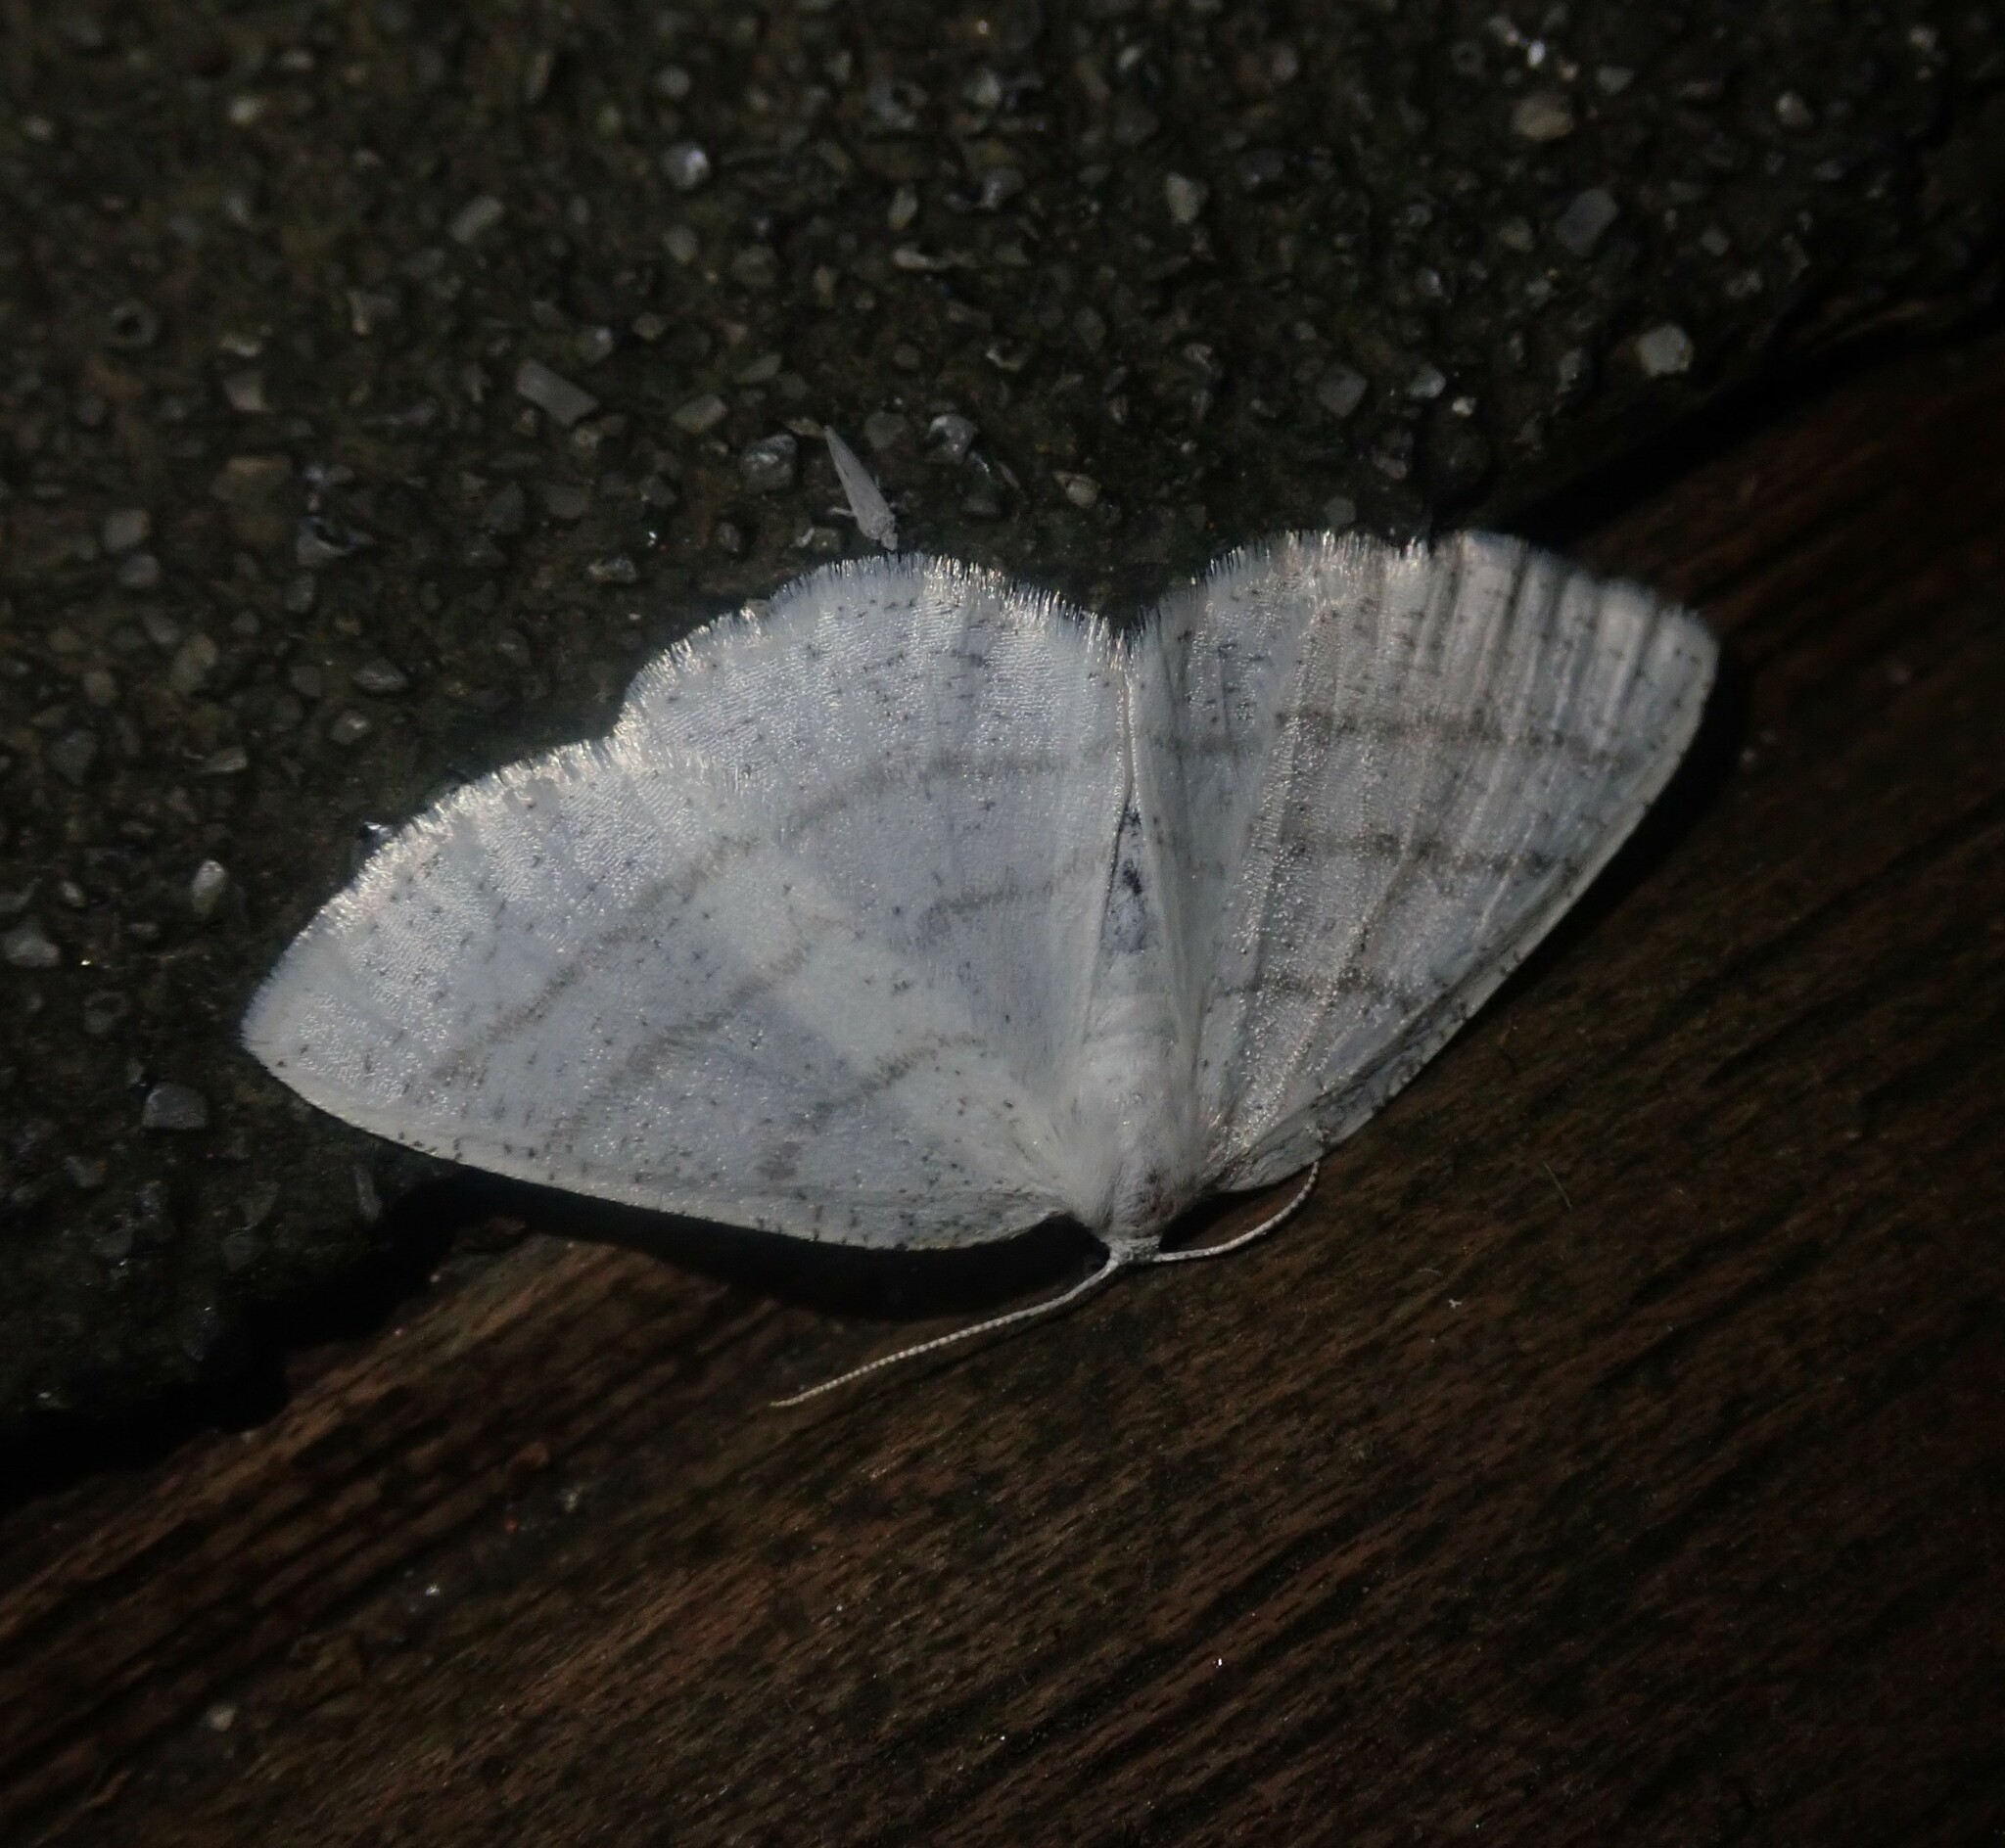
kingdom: Animalia
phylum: Arthropoda
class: Insecta
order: Lepidoptera
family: Geometridae
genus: Cabera
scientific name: Cabera pusaria
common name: Common white wave
